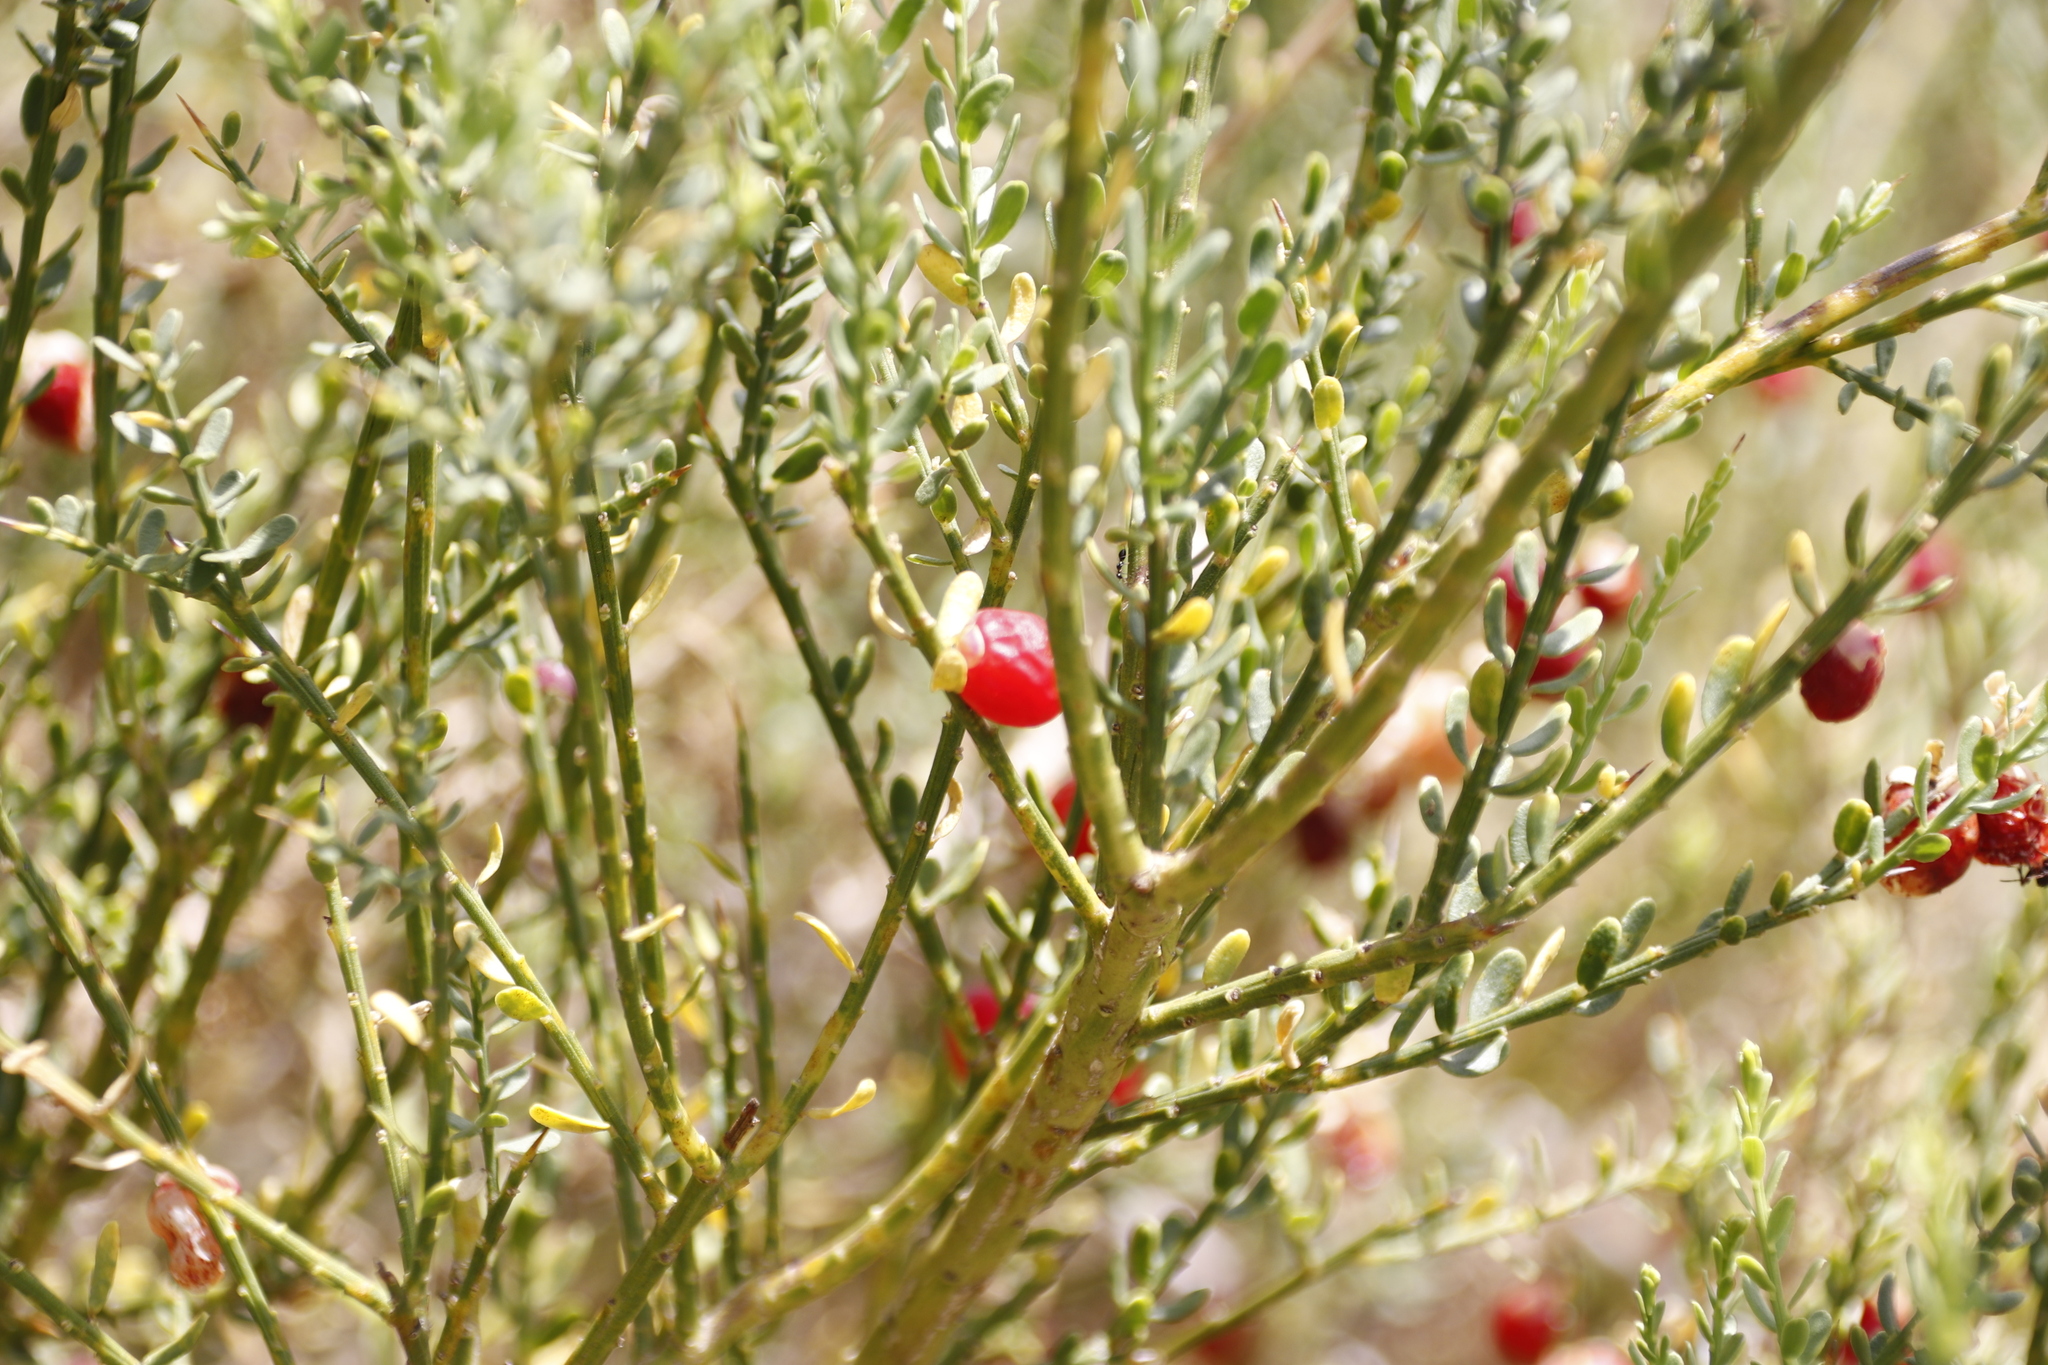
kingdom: Plantae
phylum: Tracheophyta
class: Magnoliopsida
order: Fabales
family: Polygalaceae
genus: Muraltia
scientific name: Muraltia spinosa
